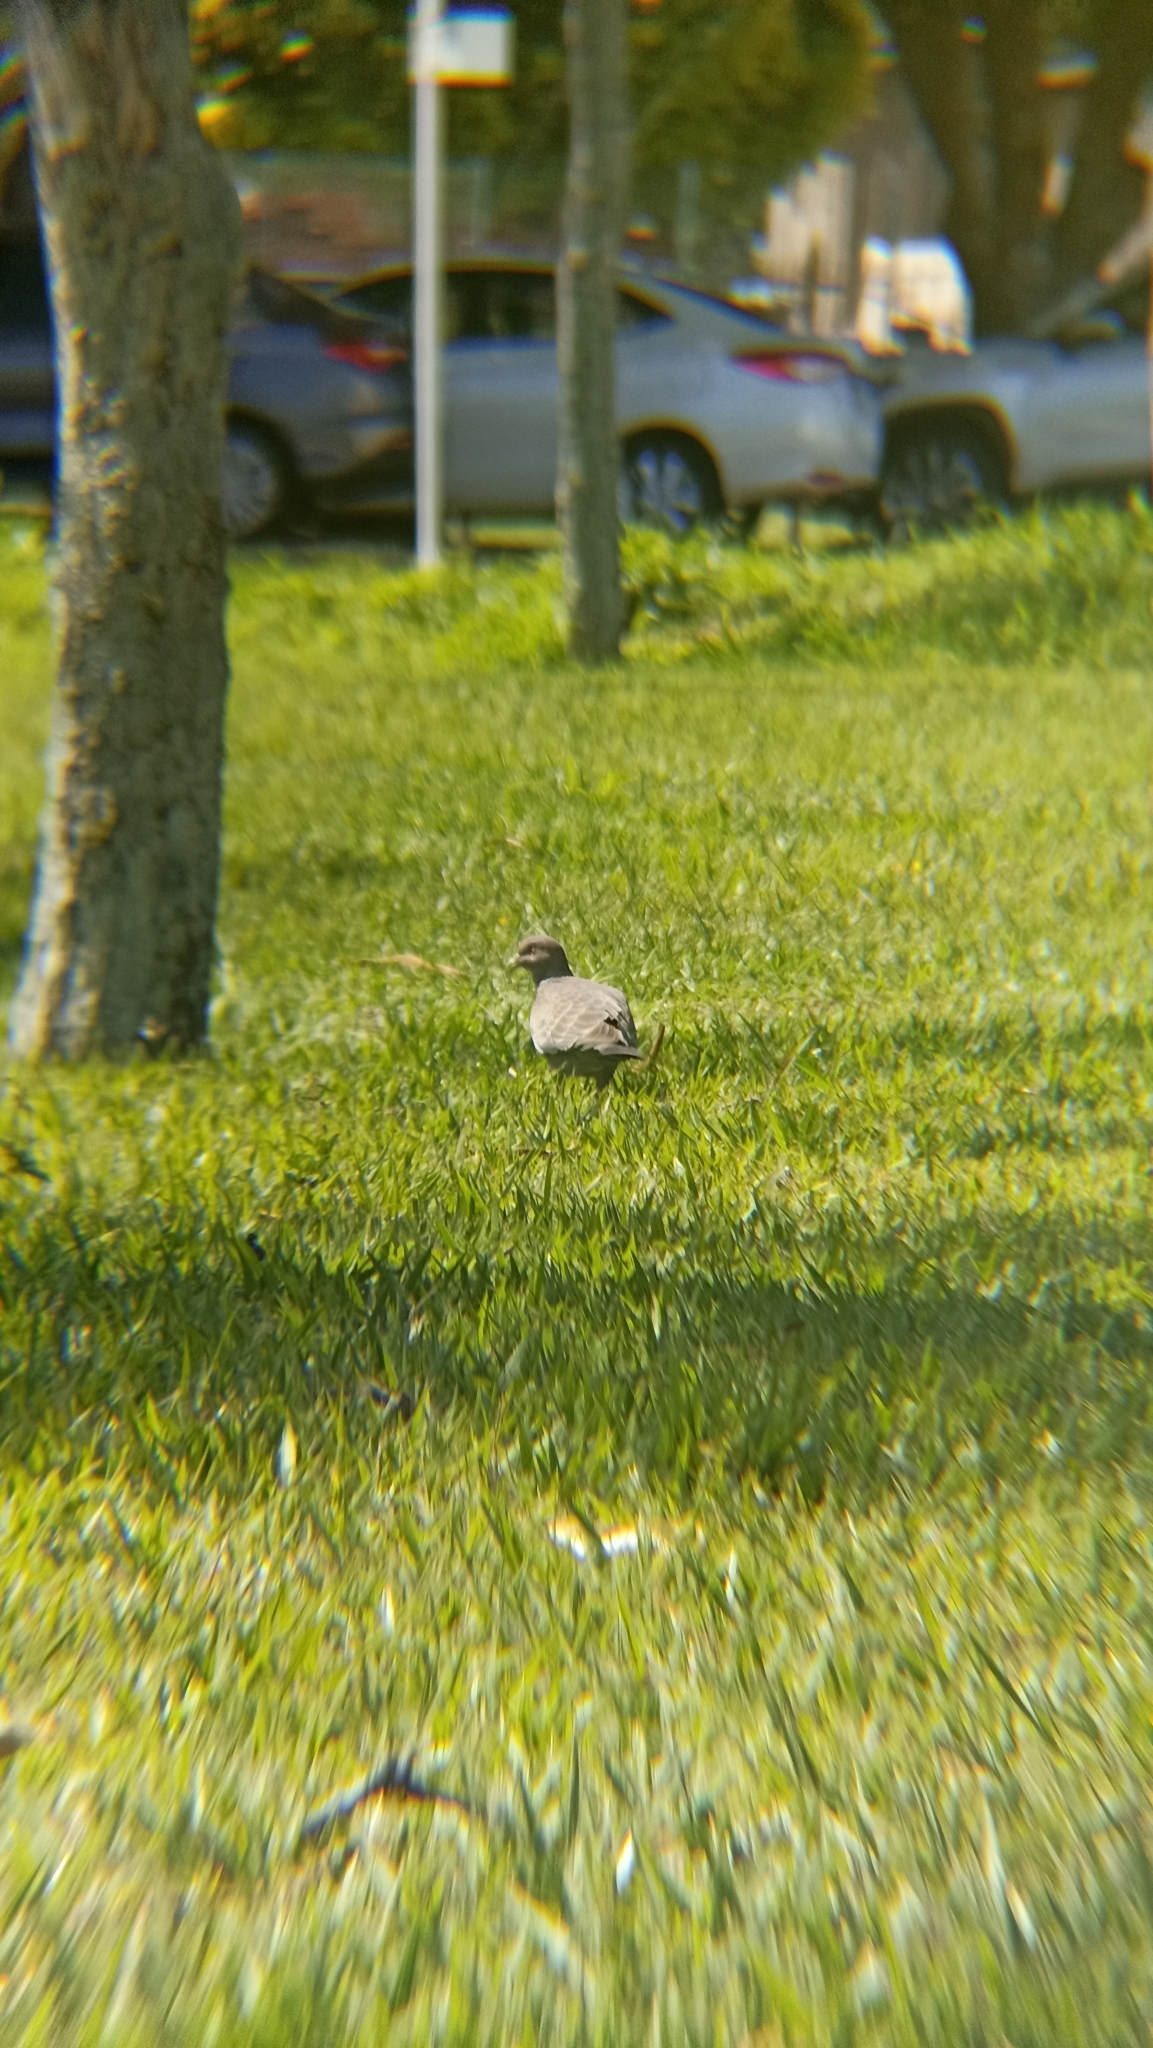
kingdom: Animalia
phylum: Chordata
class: Aves
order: Columbiformes
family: Columbidae
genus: Patagioenas
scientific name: Patagioenas picazuro
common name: Picazuro pigeon
